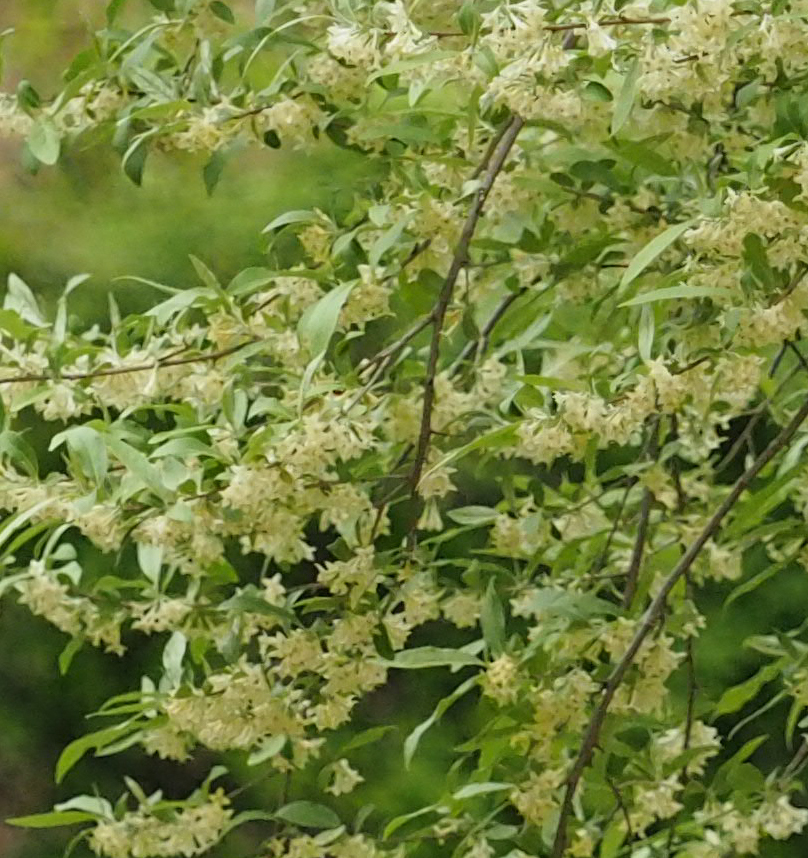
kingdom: Plantae
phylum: Tracheophyta
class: Magnoliopsida
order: Rosales
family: Elaeagnaceae
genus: Elaeagnus
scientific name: Elaeagnus umbellata
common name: Autumn olive
